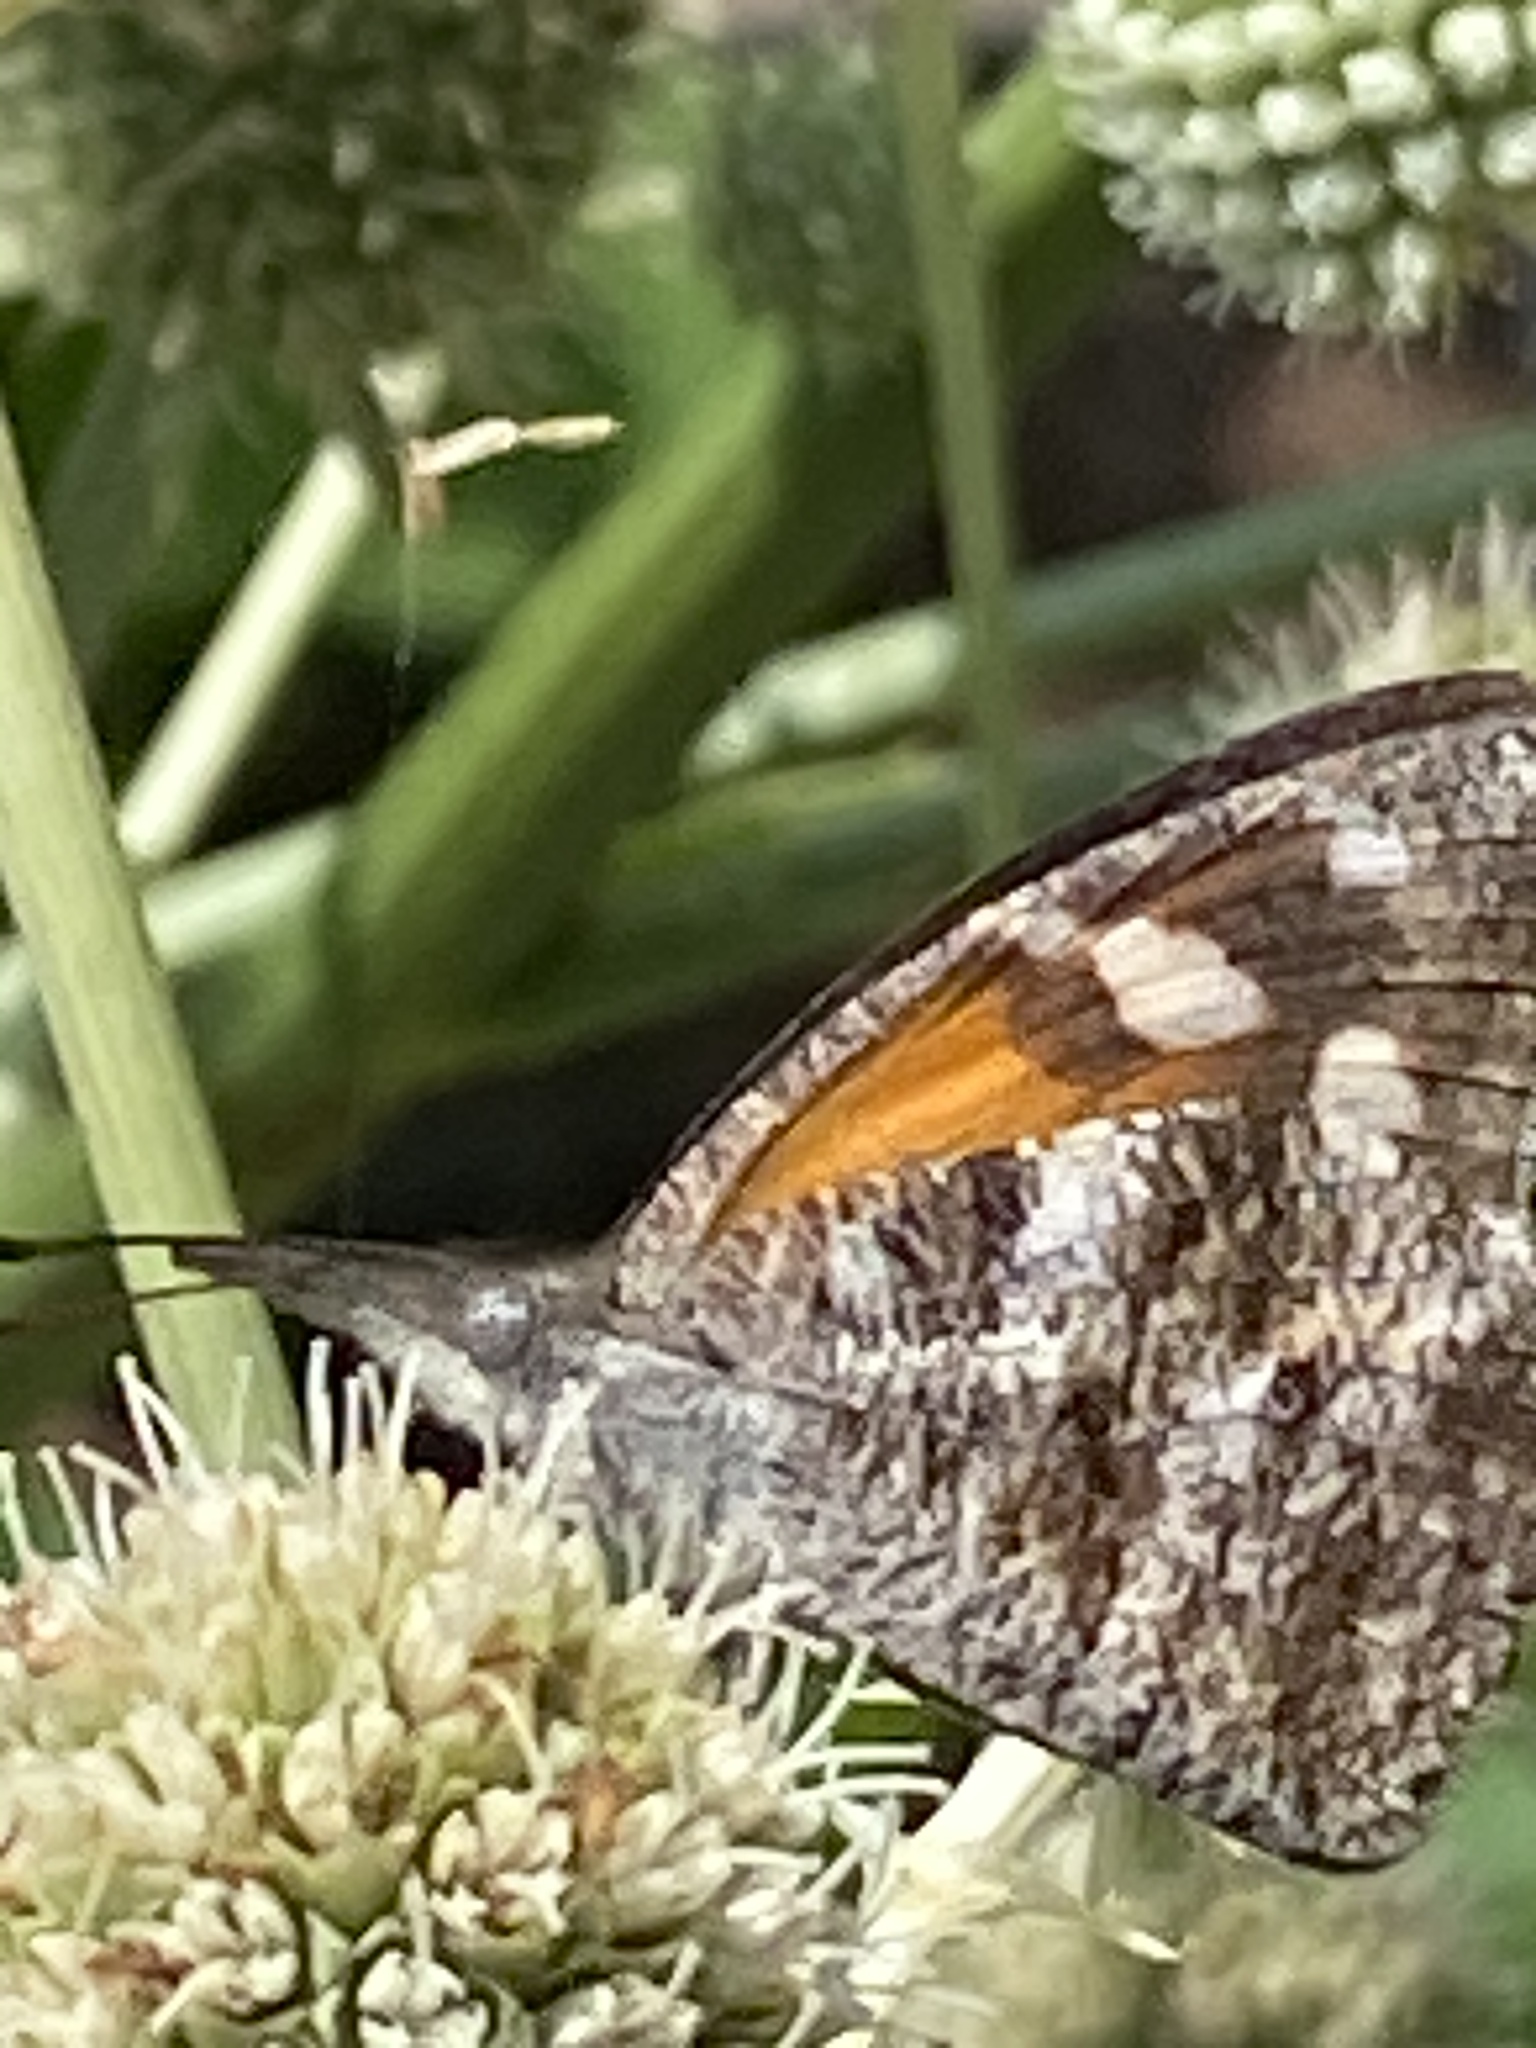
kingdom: Animalia
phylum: Arthropoda
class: Insecta
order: Lepidoptera
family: Nymphalidae
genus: Libytheana
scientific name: Libytheana carinenta
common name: American snout
